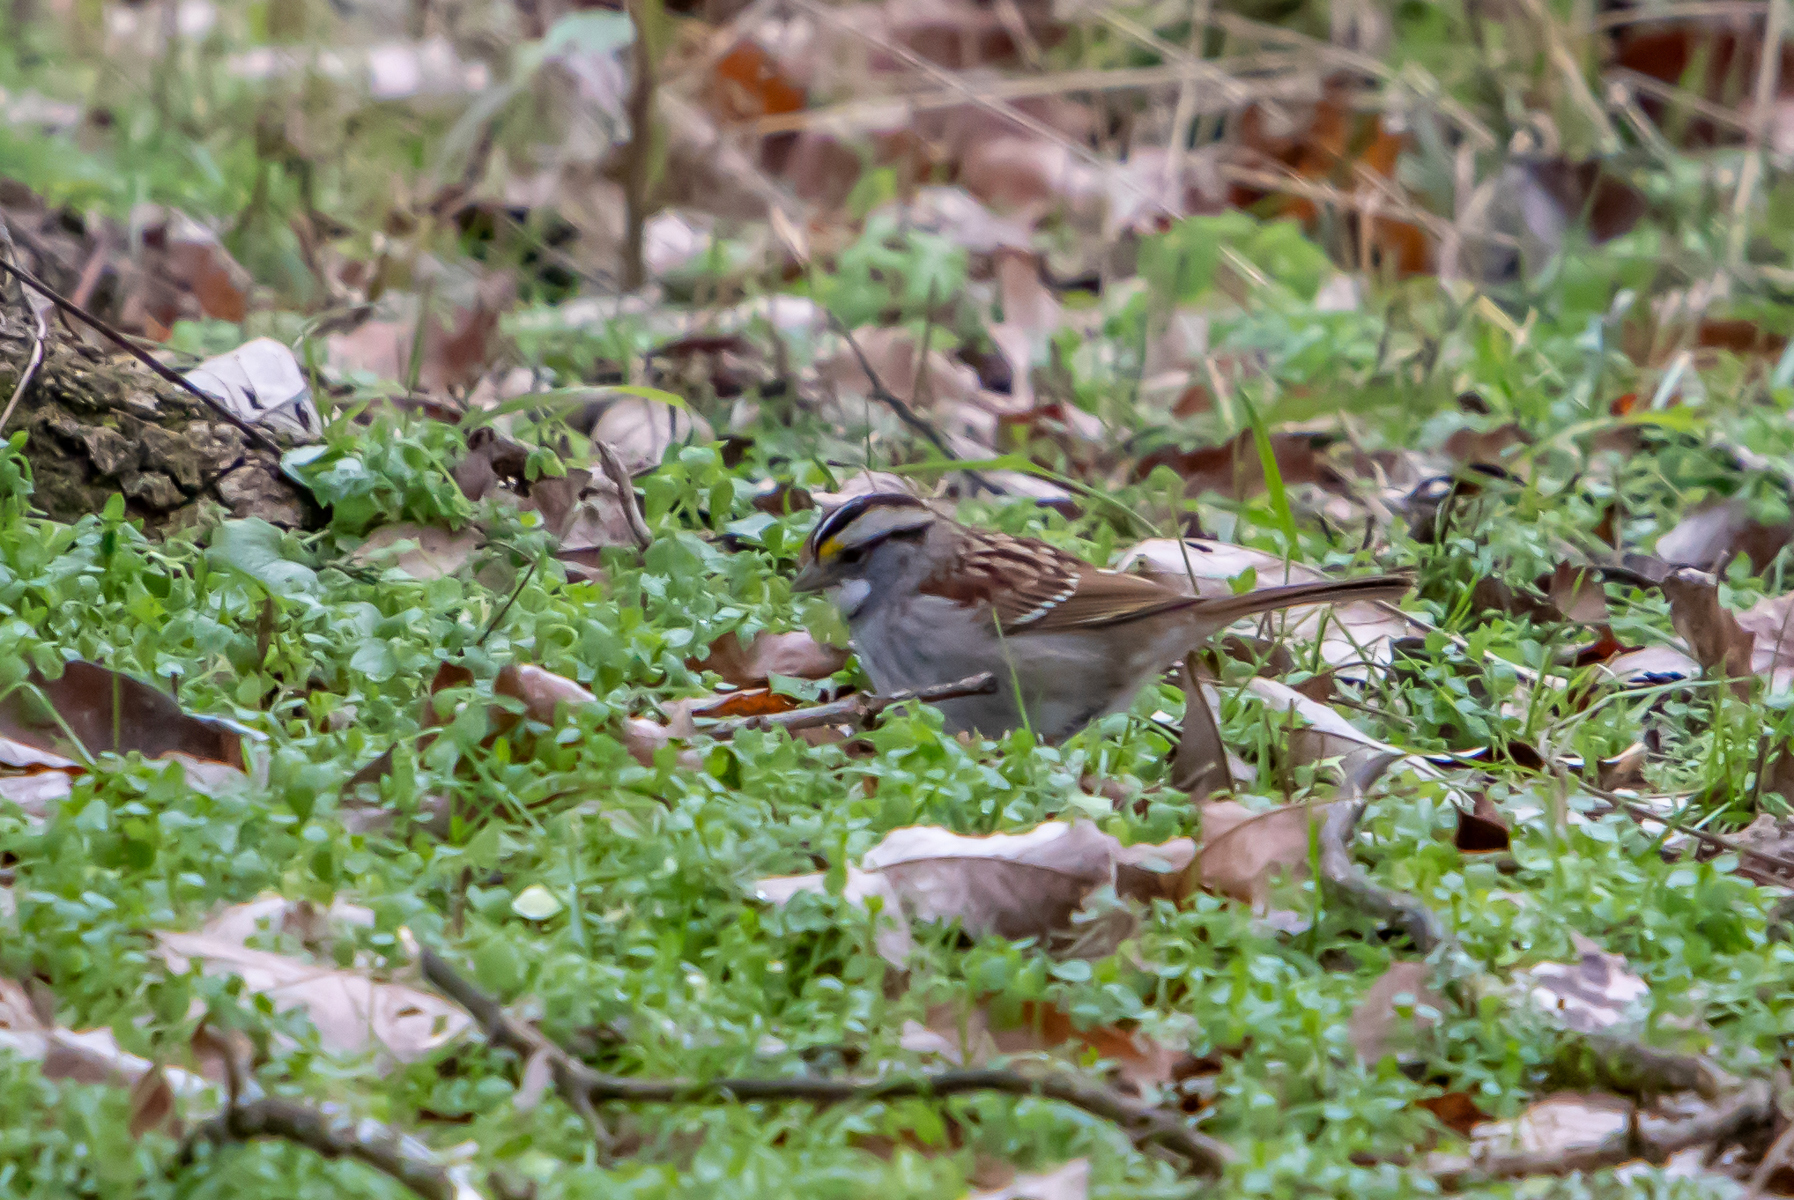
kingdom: Animalia
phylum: Chordata
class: Aves
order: Passeriformes
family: Passerellidae
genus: Zonotrichia
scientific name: Zonotrichia albicollis
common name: White-throated sparrow
